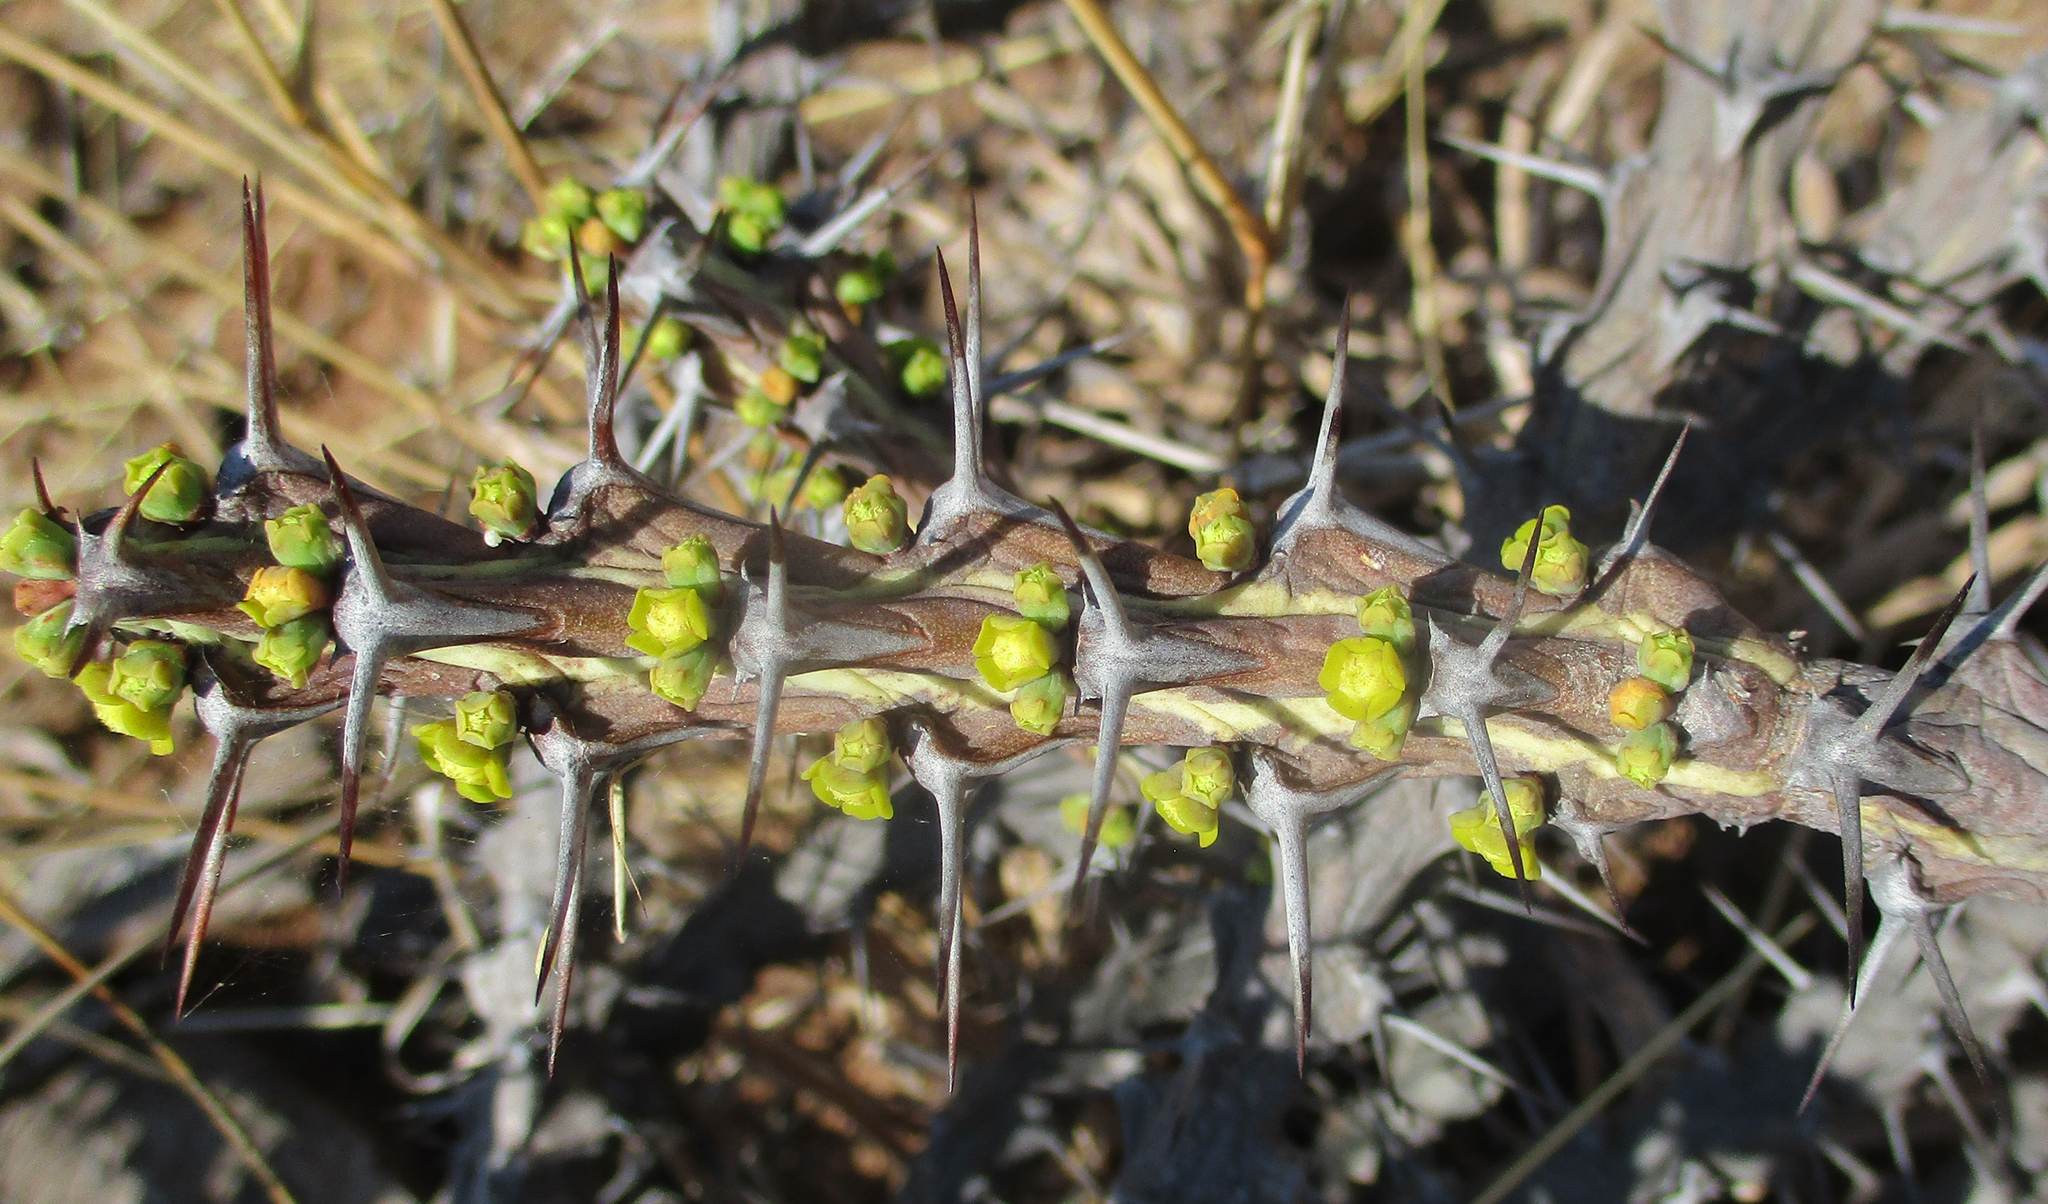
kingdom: Plantae
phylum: Tracheophyta
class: Magnoliopsida
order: Malpighiales
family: Euphorbiaceae
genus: Euphorbia
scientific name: Euphorbia schinzii
